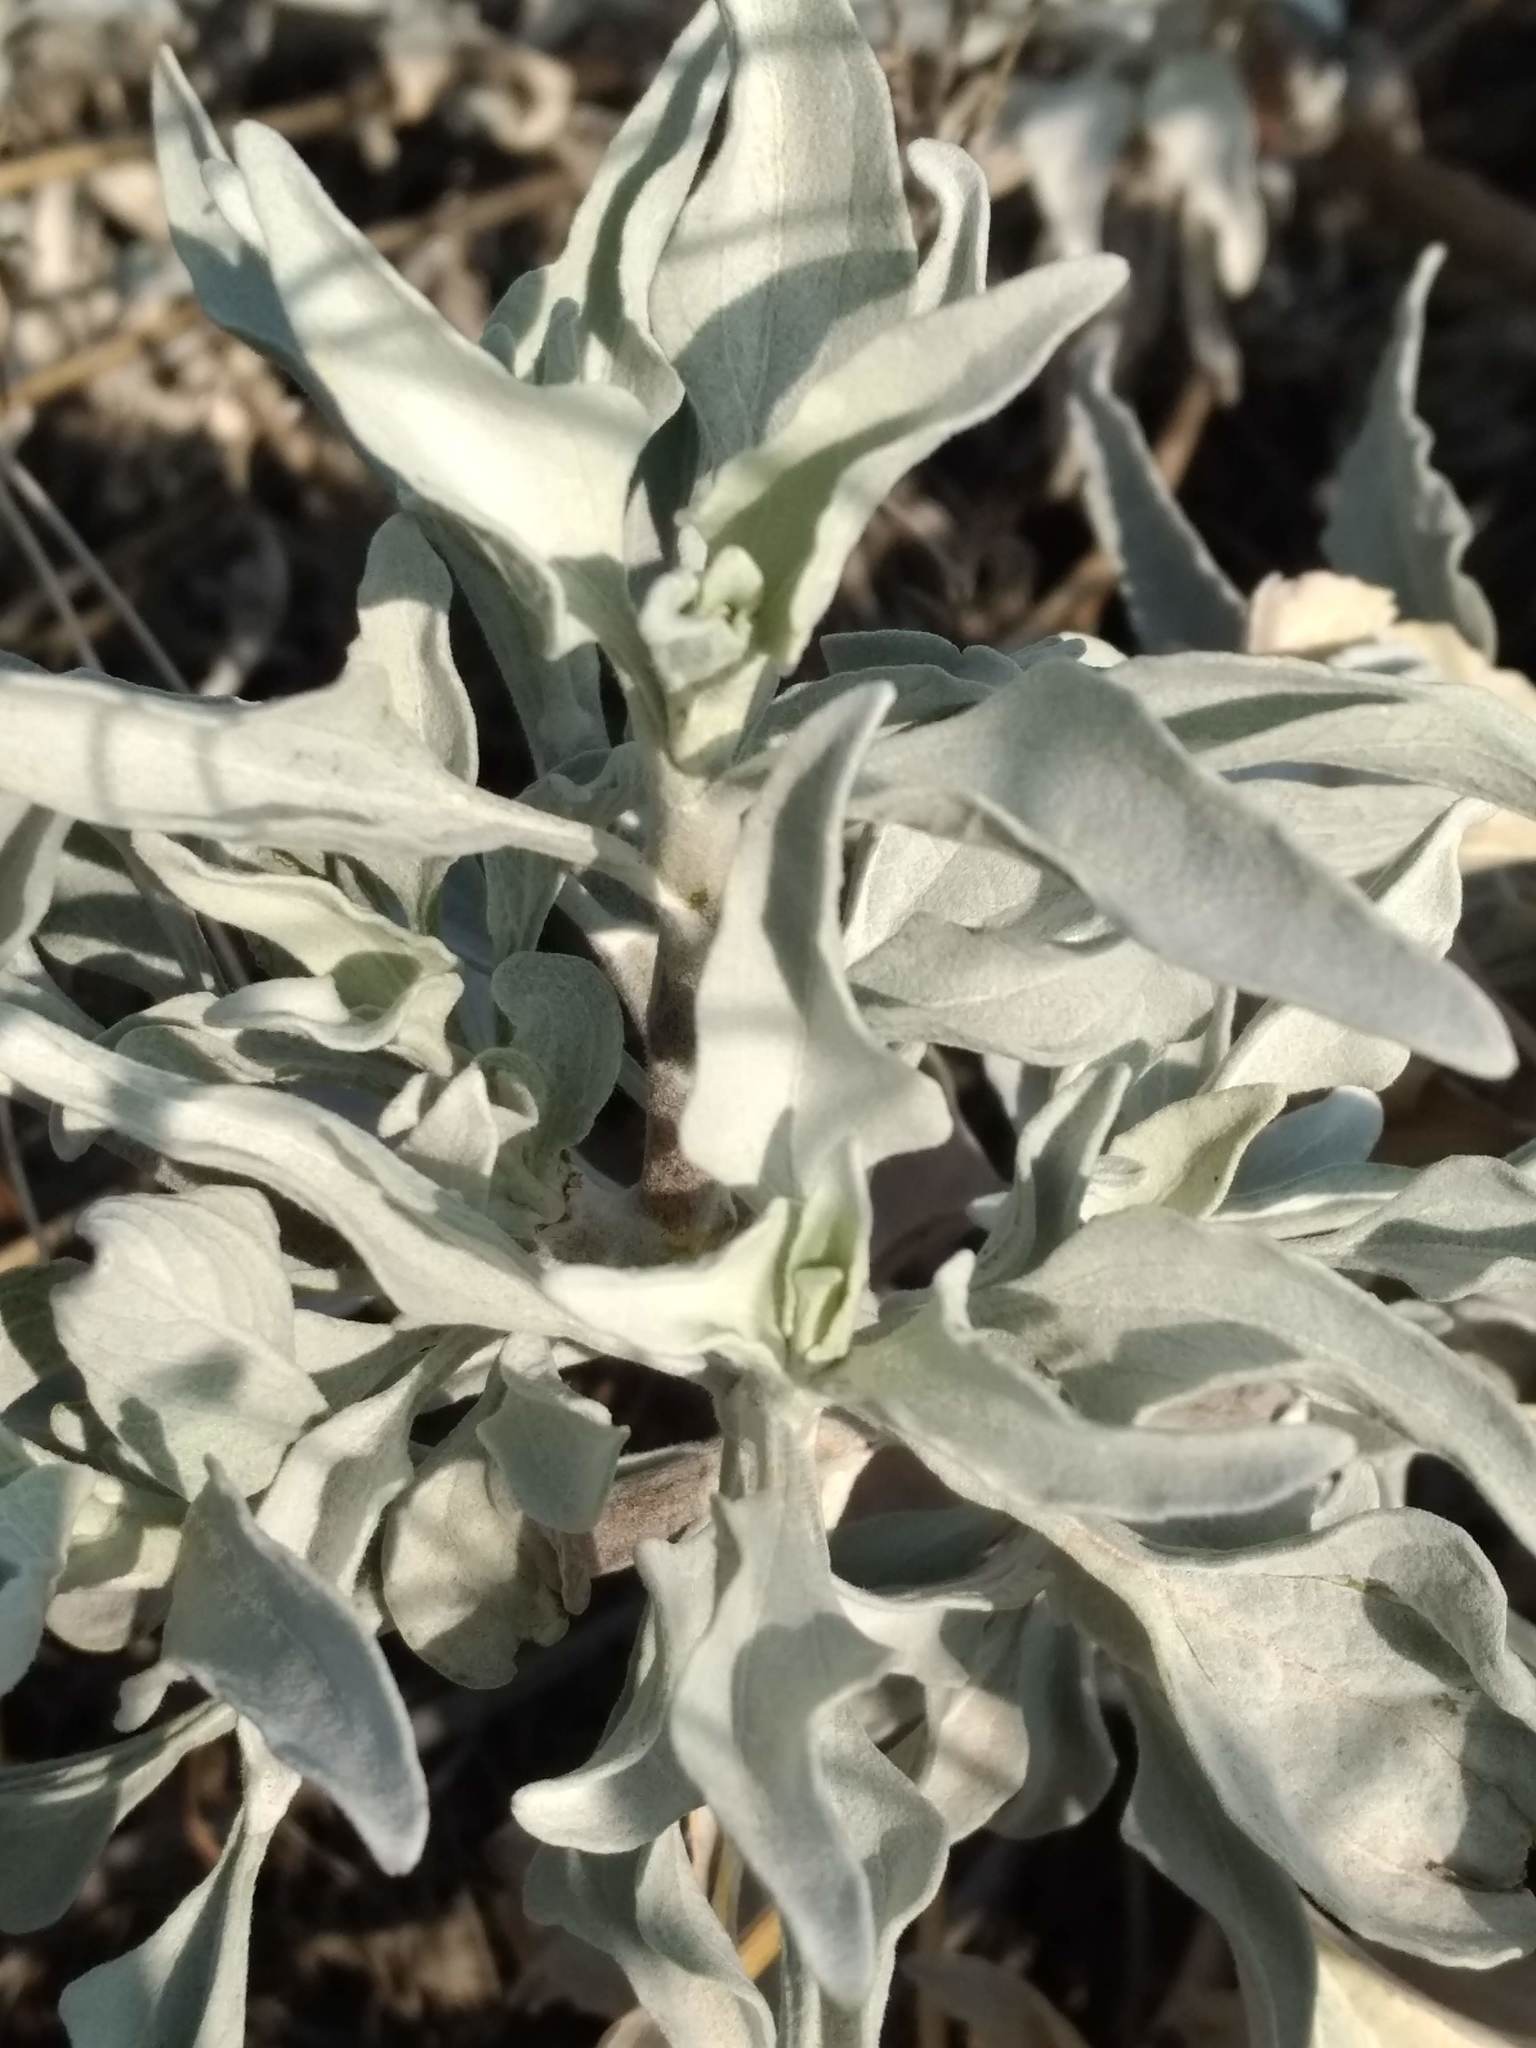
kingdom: Plantae
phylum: Tracheophyta
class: Magnoliopsida
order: Asterales
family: Asteraceae
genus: Encelia
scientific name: Encelia farinosa
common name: Brittlebush
